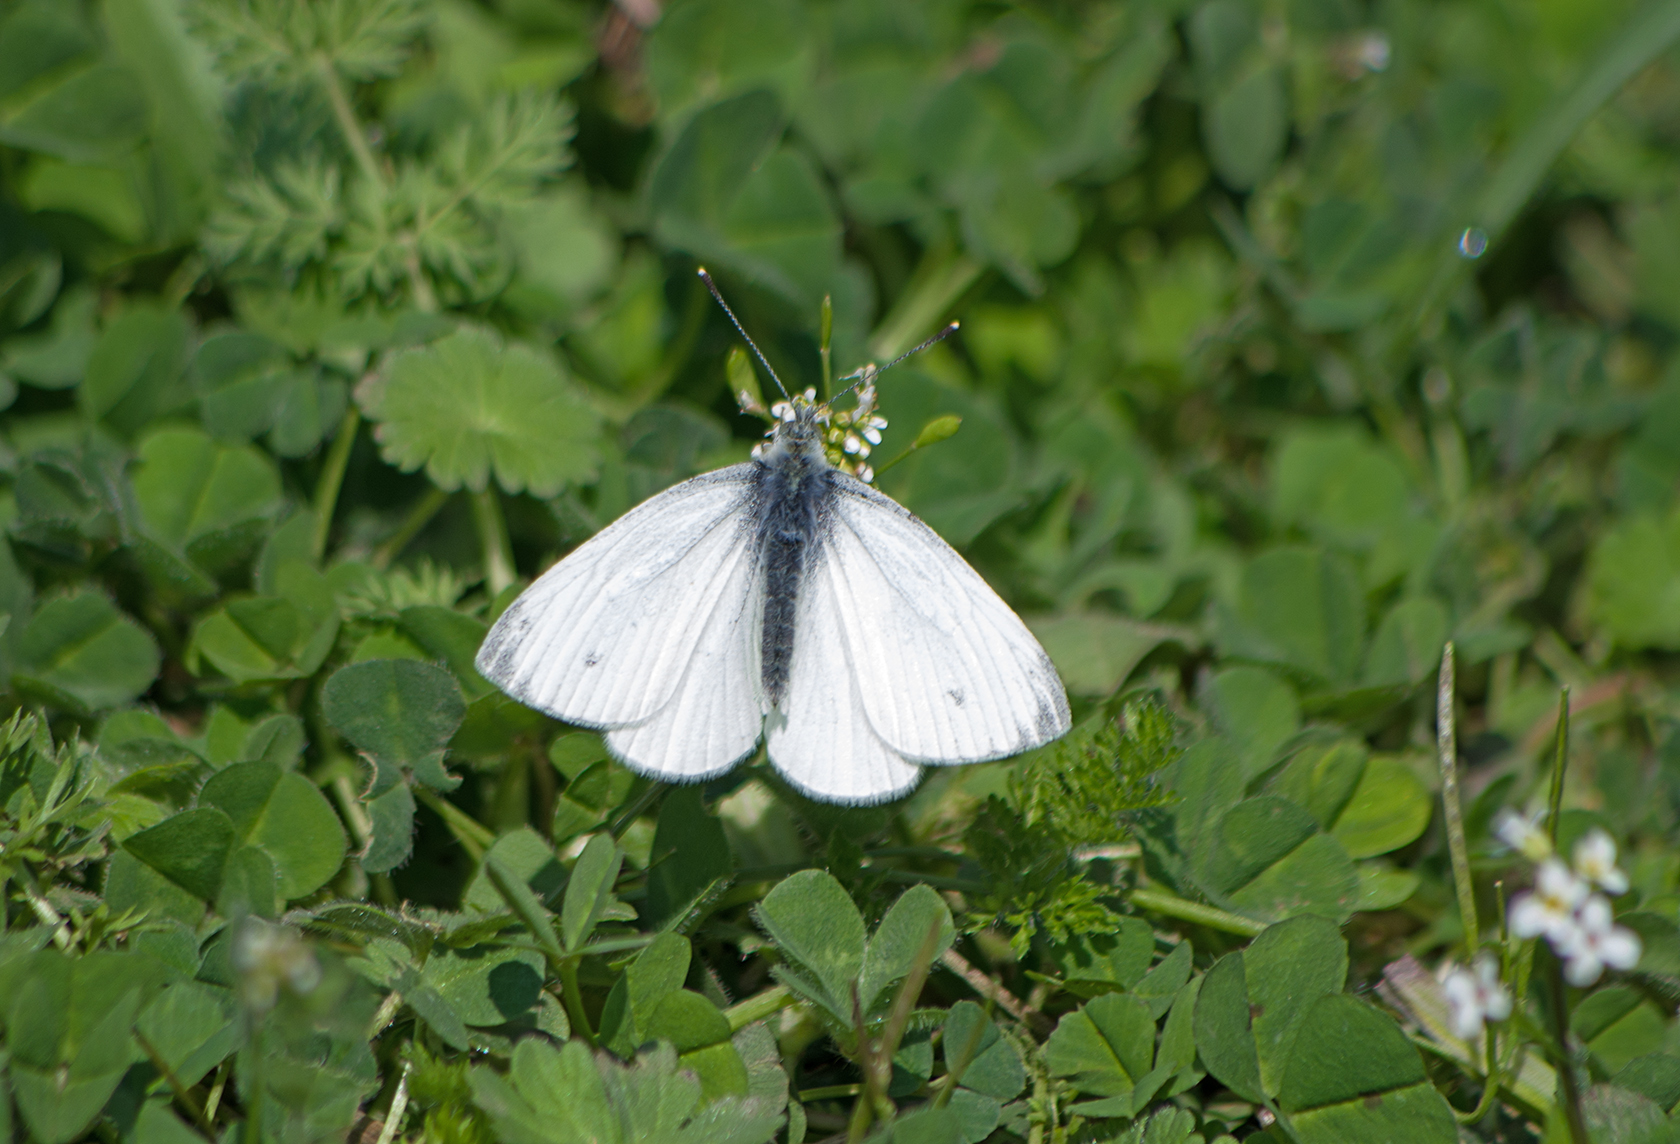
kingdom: Animalia
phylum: Arthropoda
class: Insecta
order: Lepidoptera
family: Pieridae
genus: Pieris
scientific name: Pieris napi
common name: Green-veined white
